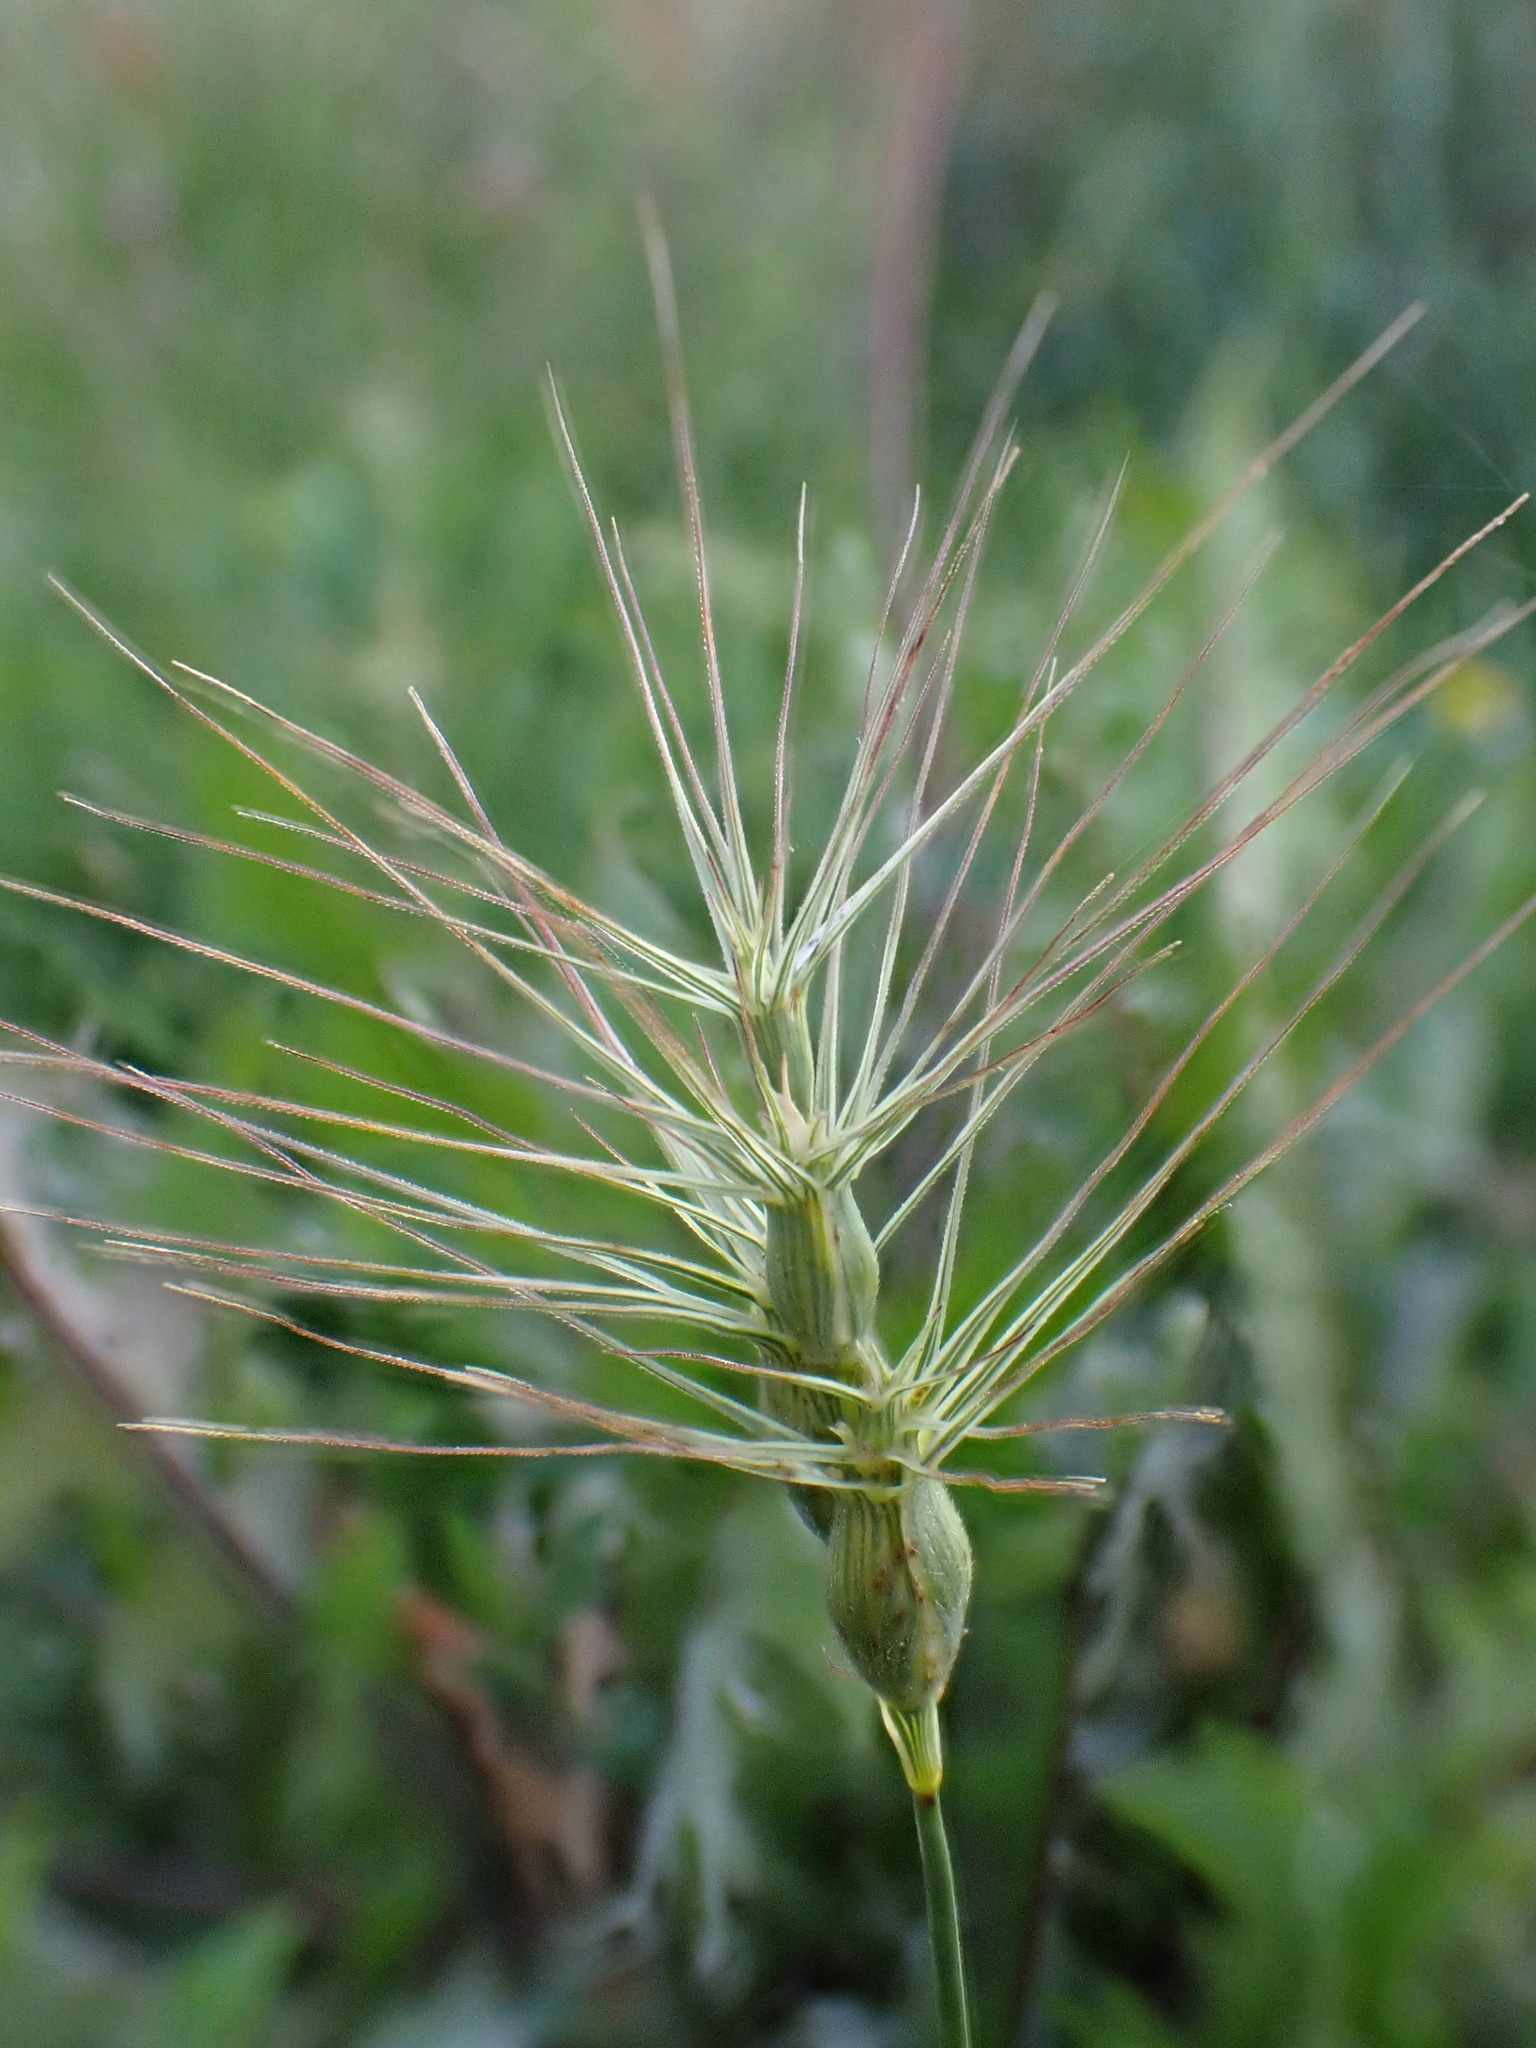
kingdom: Plantae
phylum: Tracheophyta
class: Liliopsida
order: Poales
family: Poaceae
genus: Aegilops
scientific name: Aegilops geniculata
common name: Ovate goat grass
